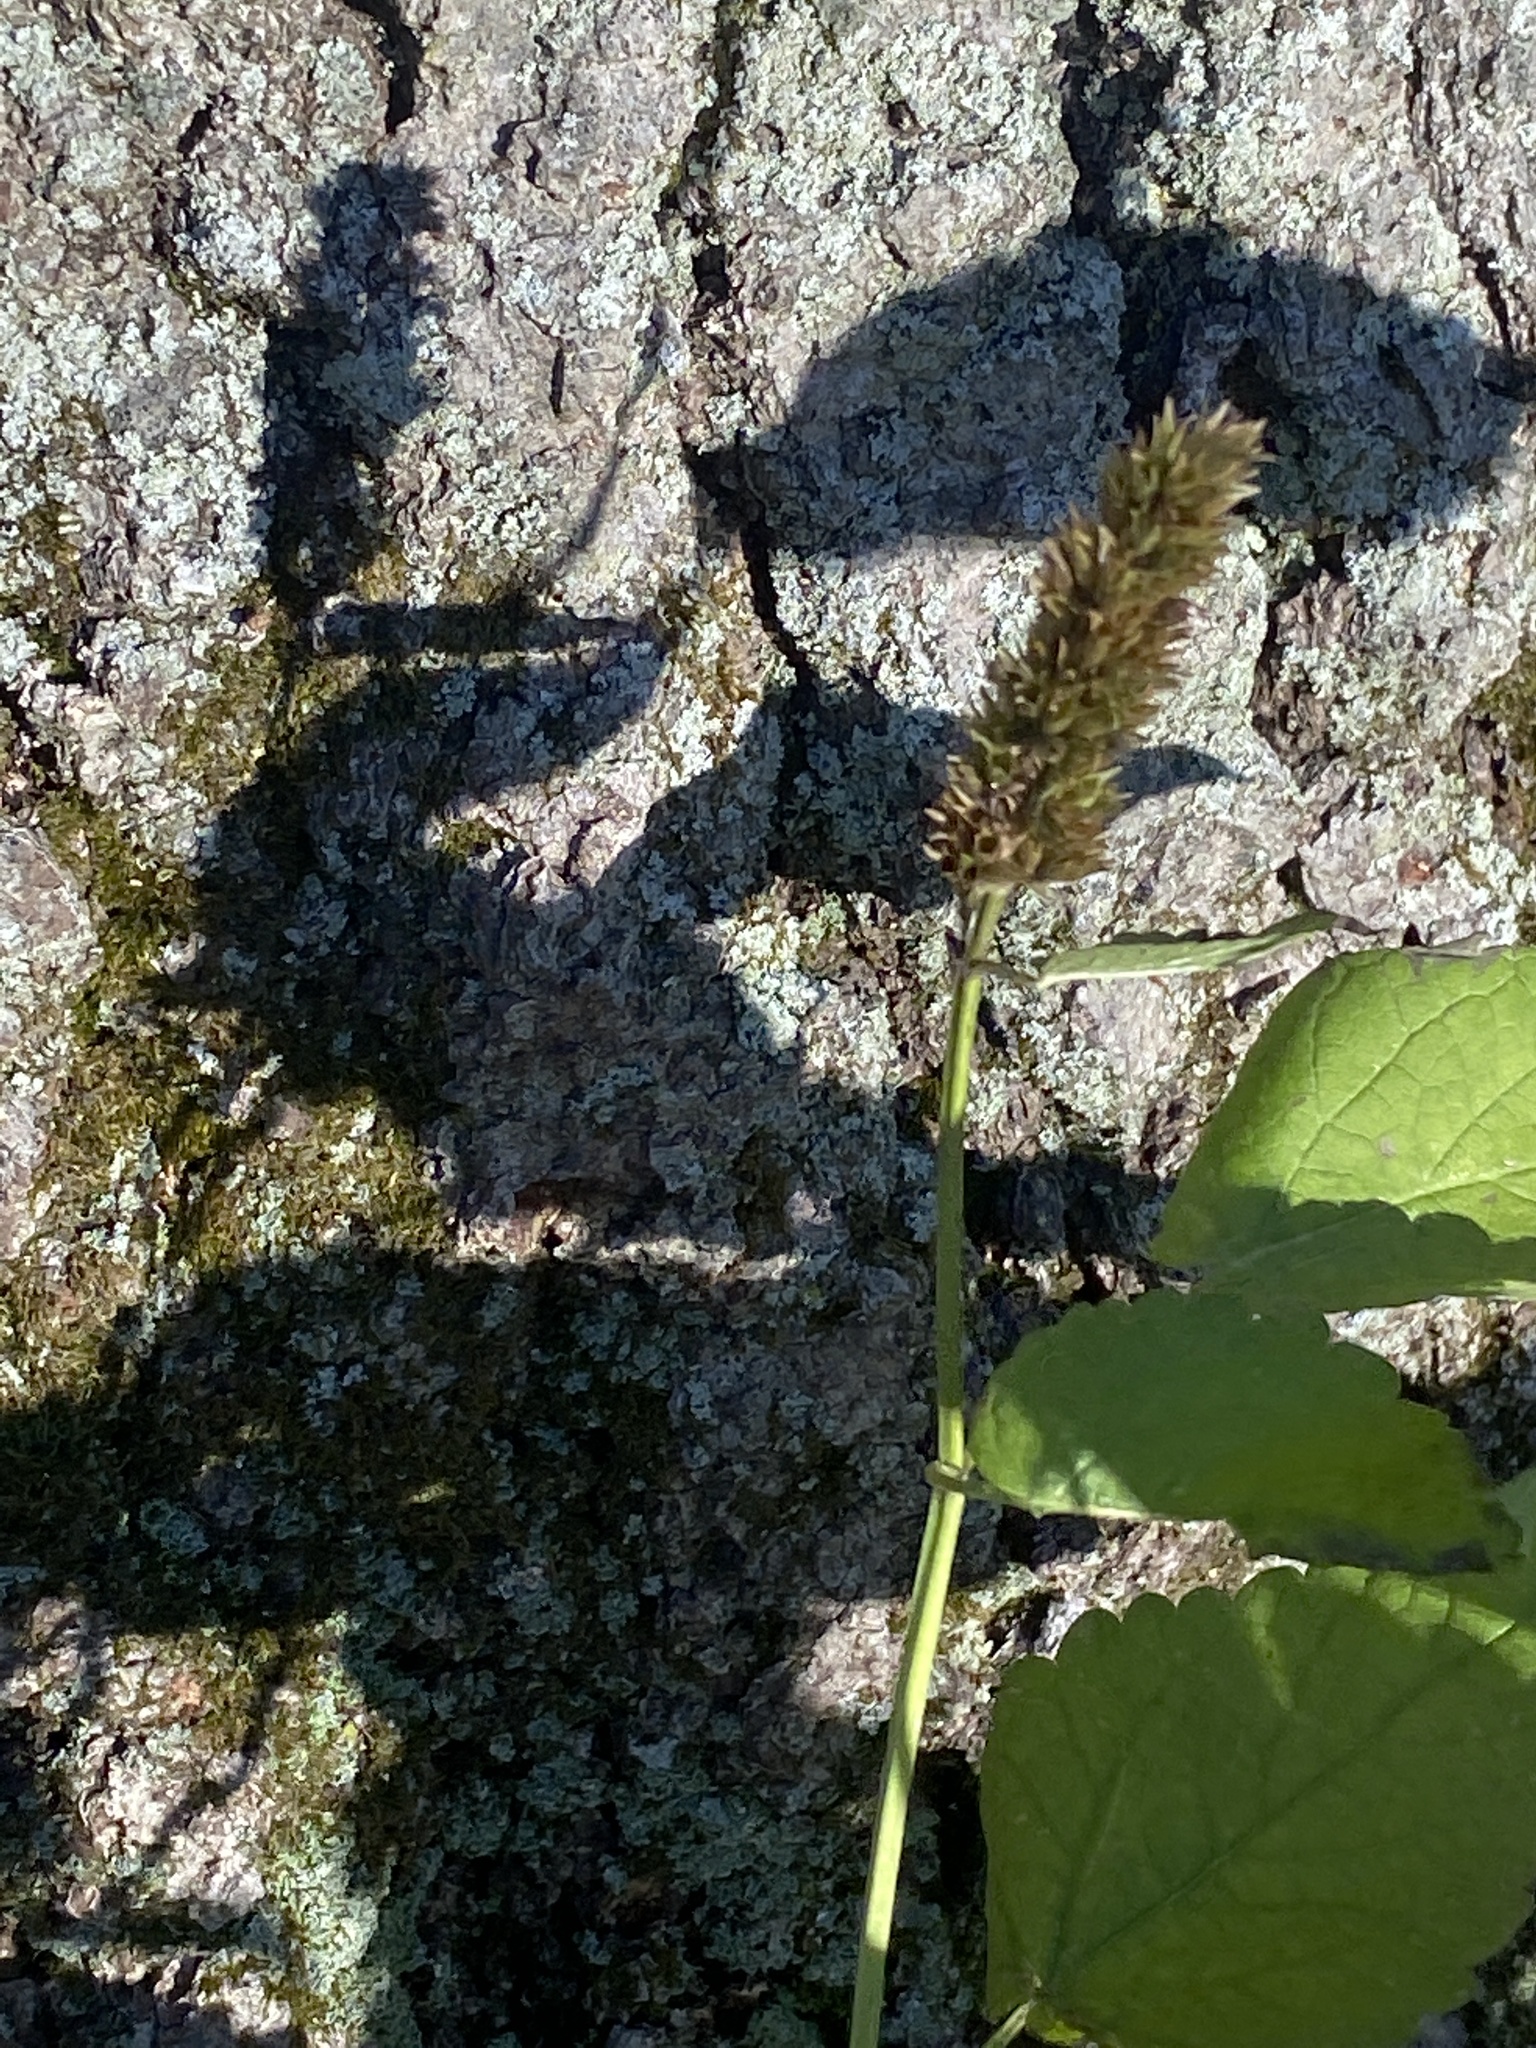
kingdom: Plantae
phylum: Tracheophyta
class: Magnoliopsida
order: Lamiales
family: Lamiaceae
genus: Agastache
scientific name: Agastache foeniculum
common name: Anise hyssop
